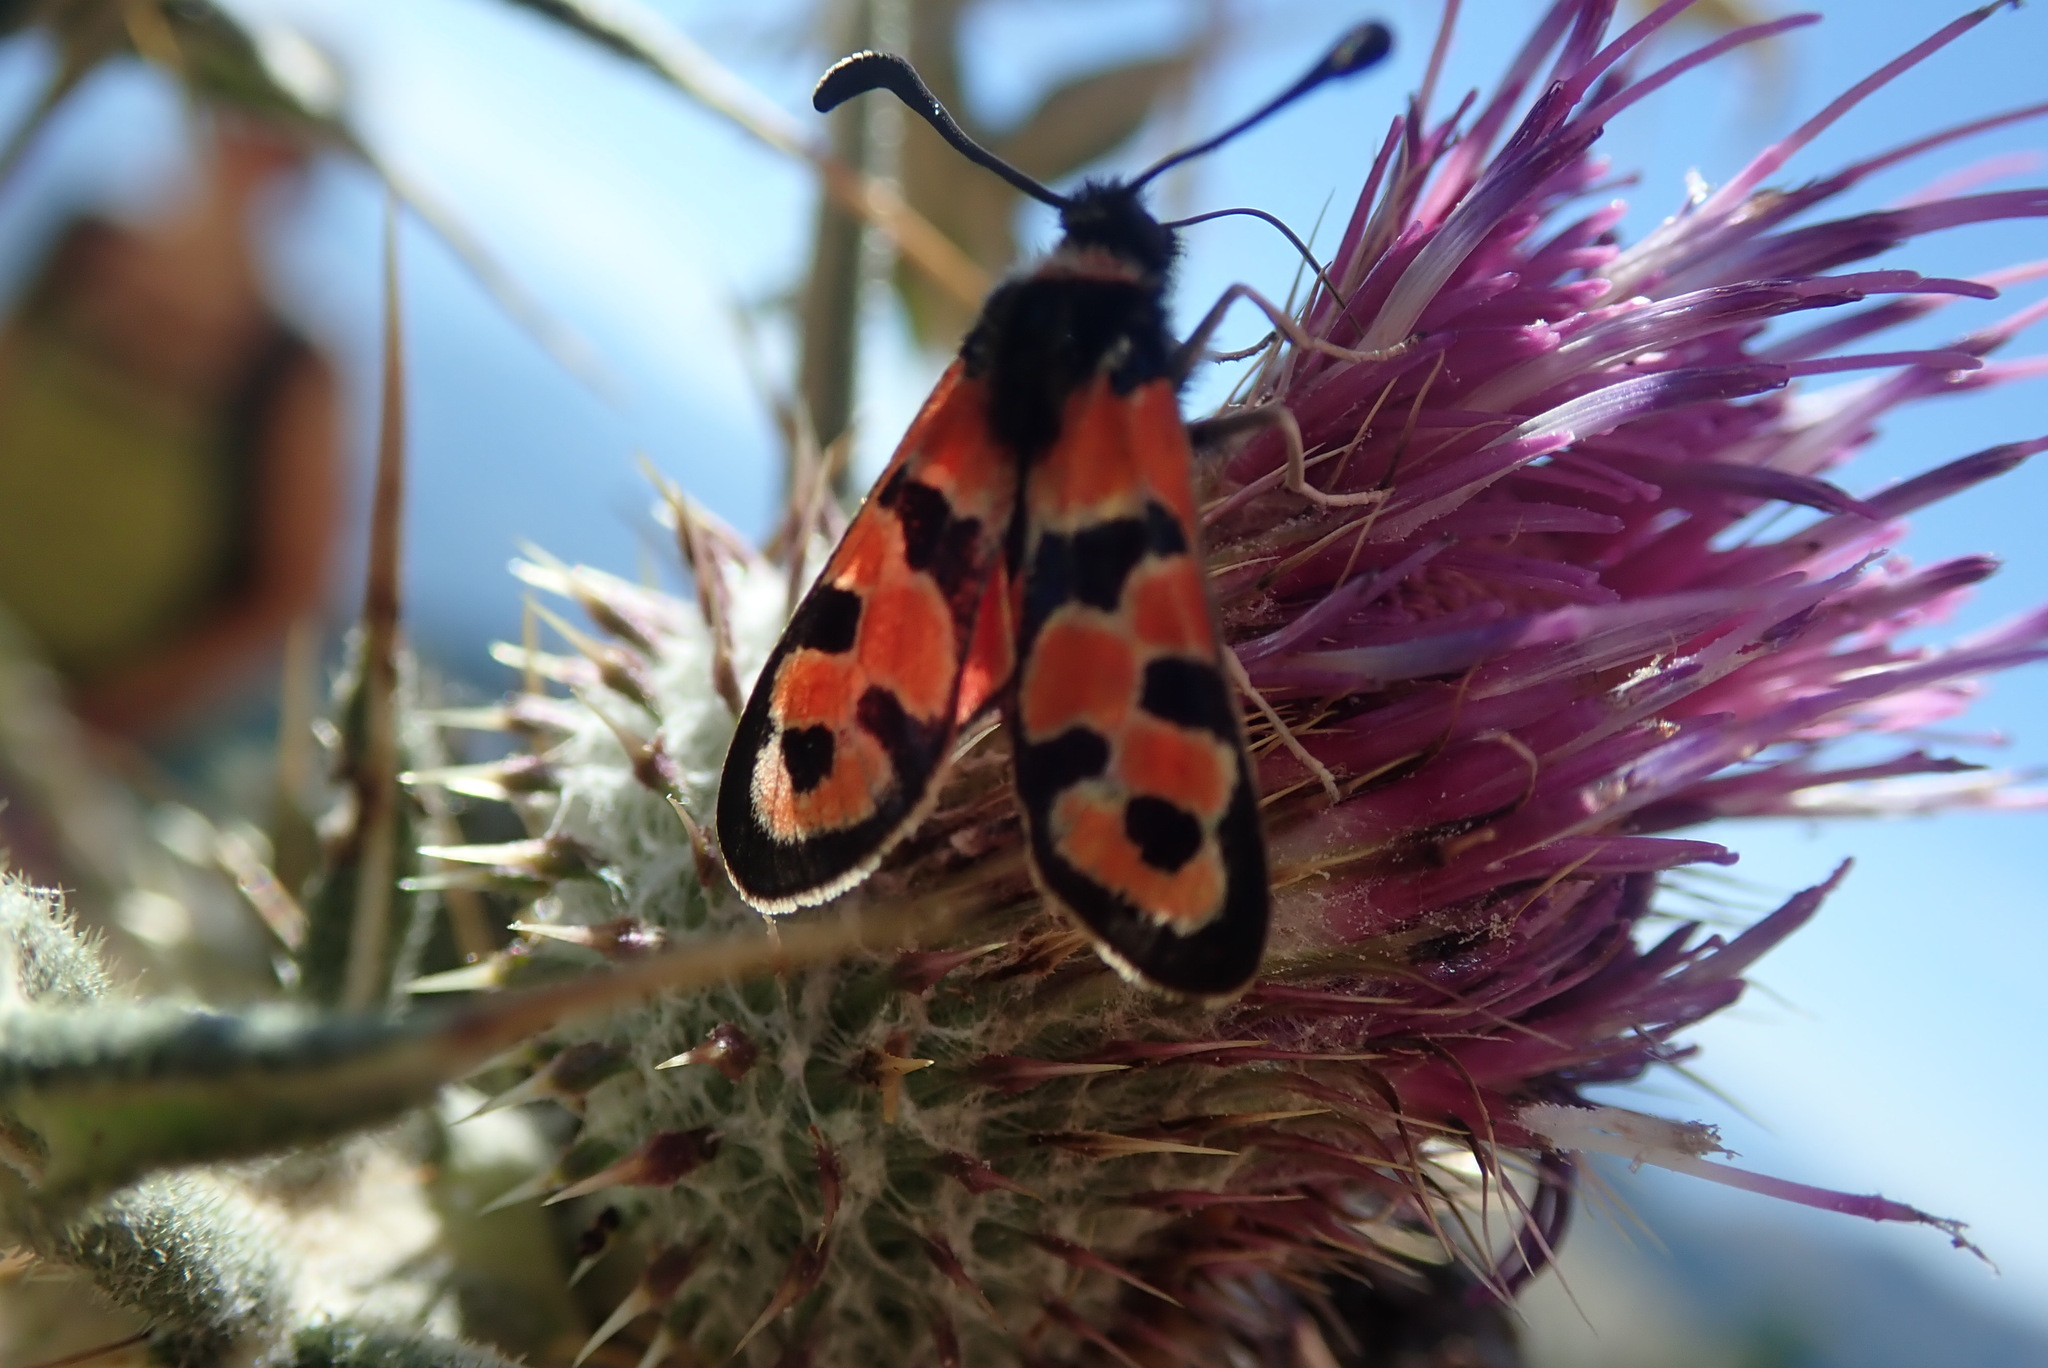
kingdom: Animalia
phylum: Arthropoda
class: Insecta
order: Lepidoptera
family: Zygaenidae
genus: Zygaena
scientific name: Zygaena fausta
